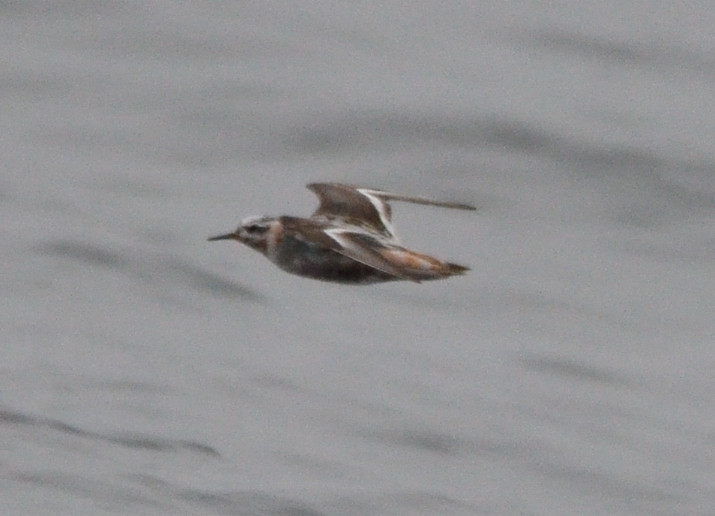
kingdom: Animalia
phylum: Chordata
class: Aves
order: Charadriiformes
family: Scolopacidae
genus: Phalaropus
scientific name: Phalaropus fulicarius
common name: Red phalarope
